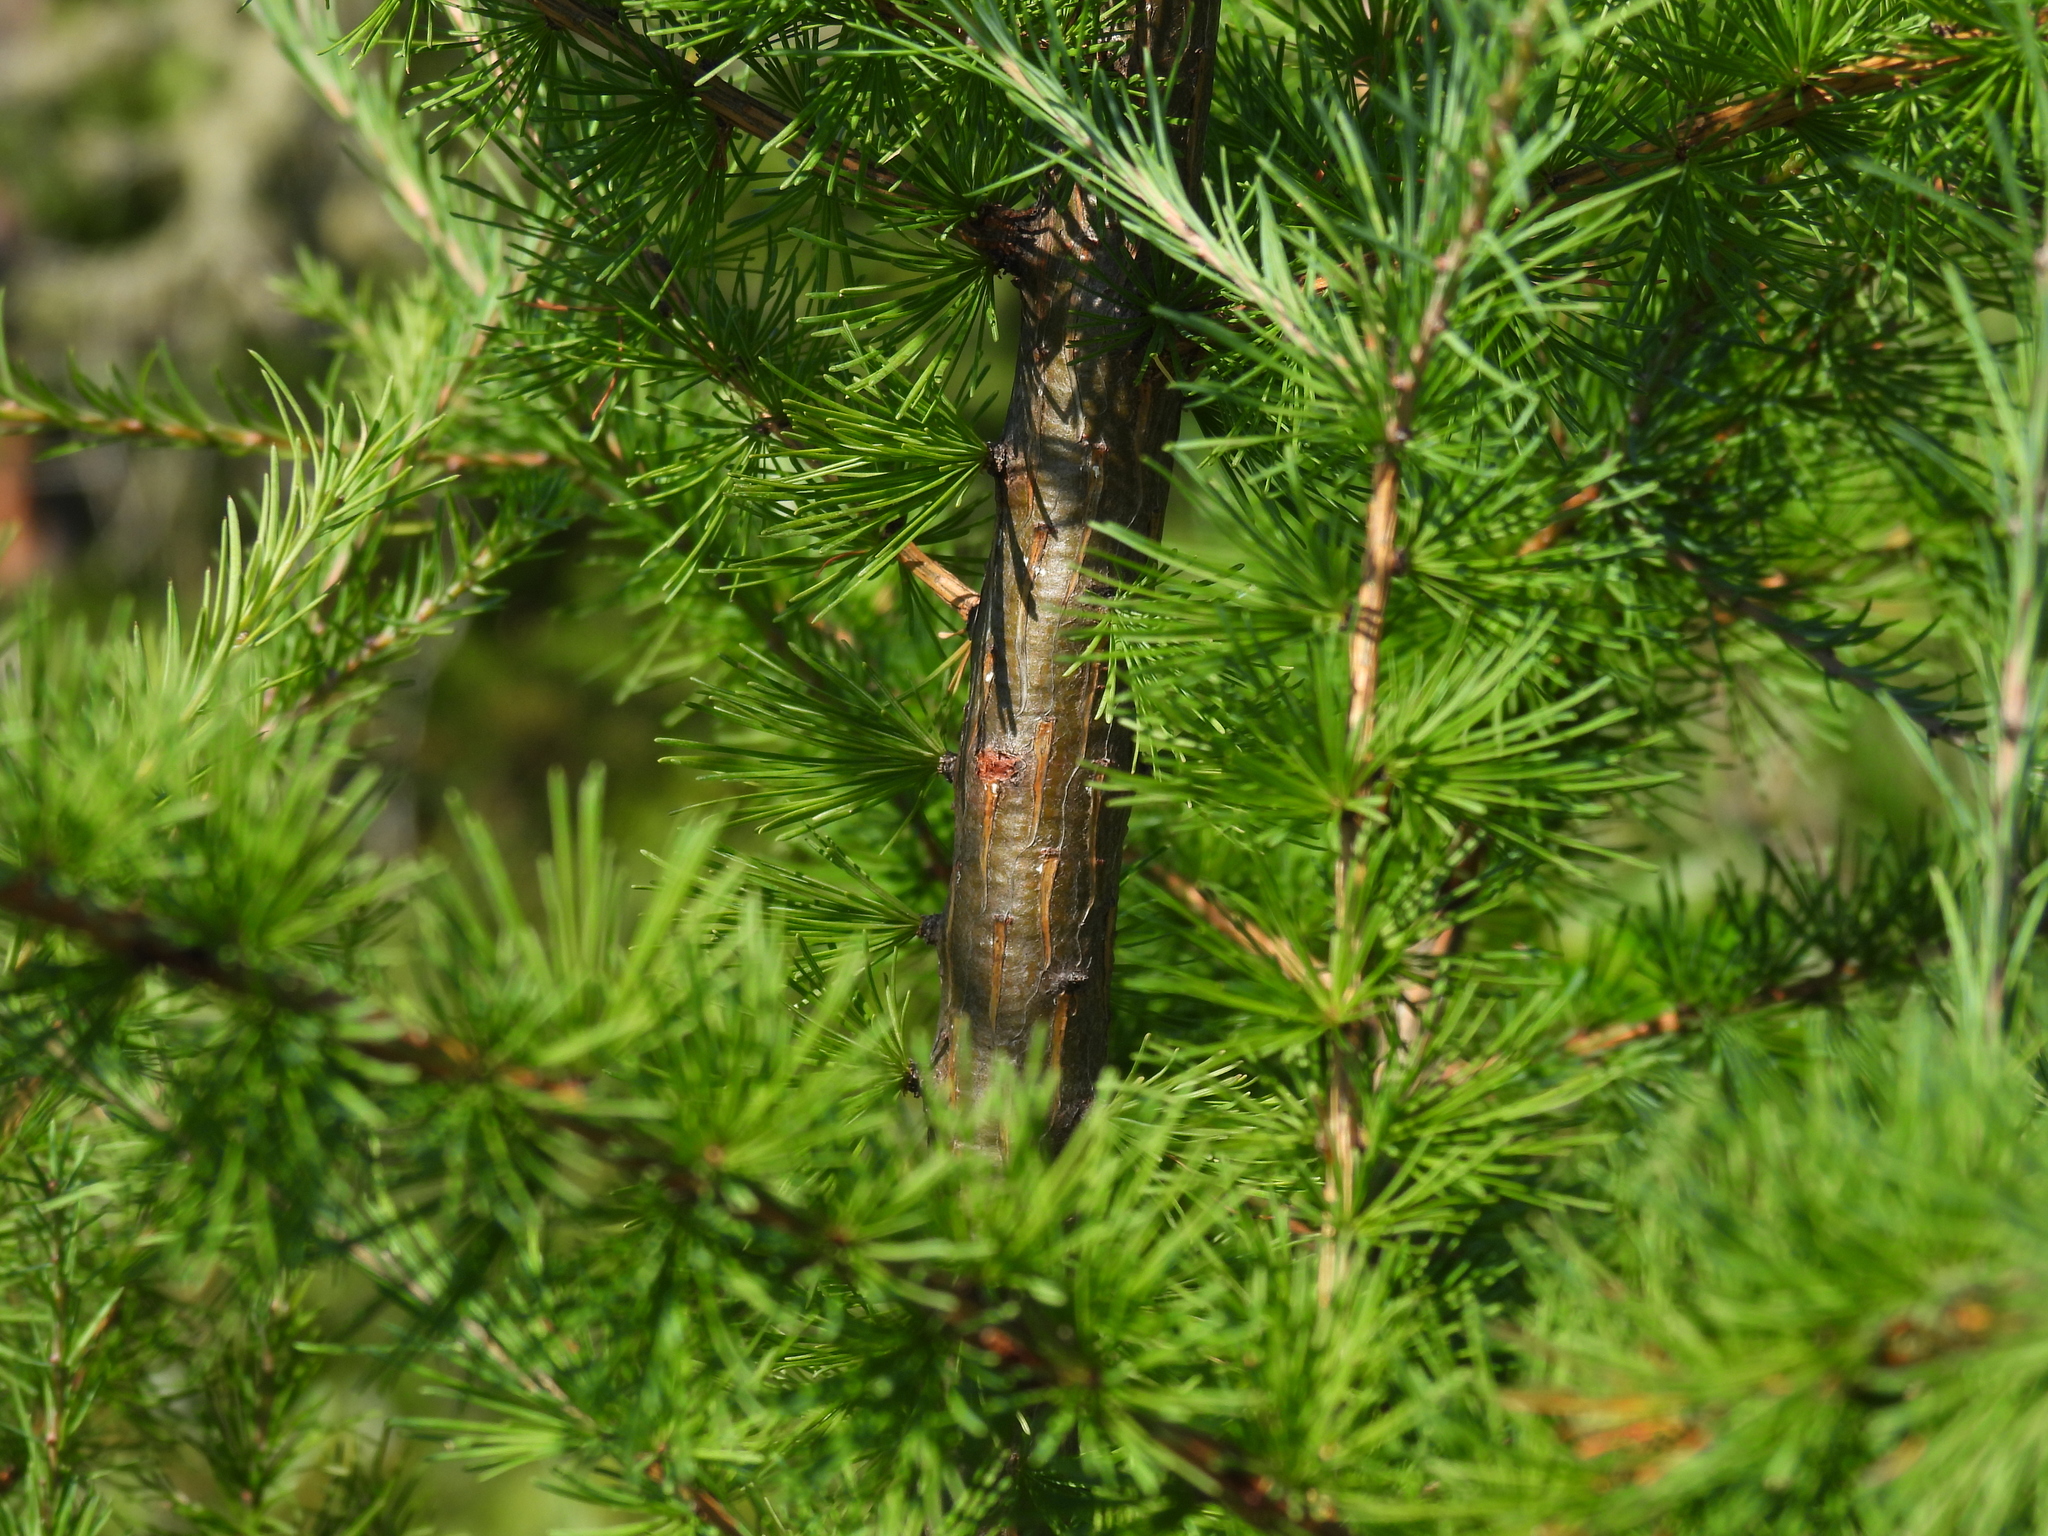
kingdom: Plantae
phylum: Tracheophyta
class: Pinopsida
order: Pinales
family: Pinaceae
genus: Larix
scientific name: Larix laricina
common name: American larch
